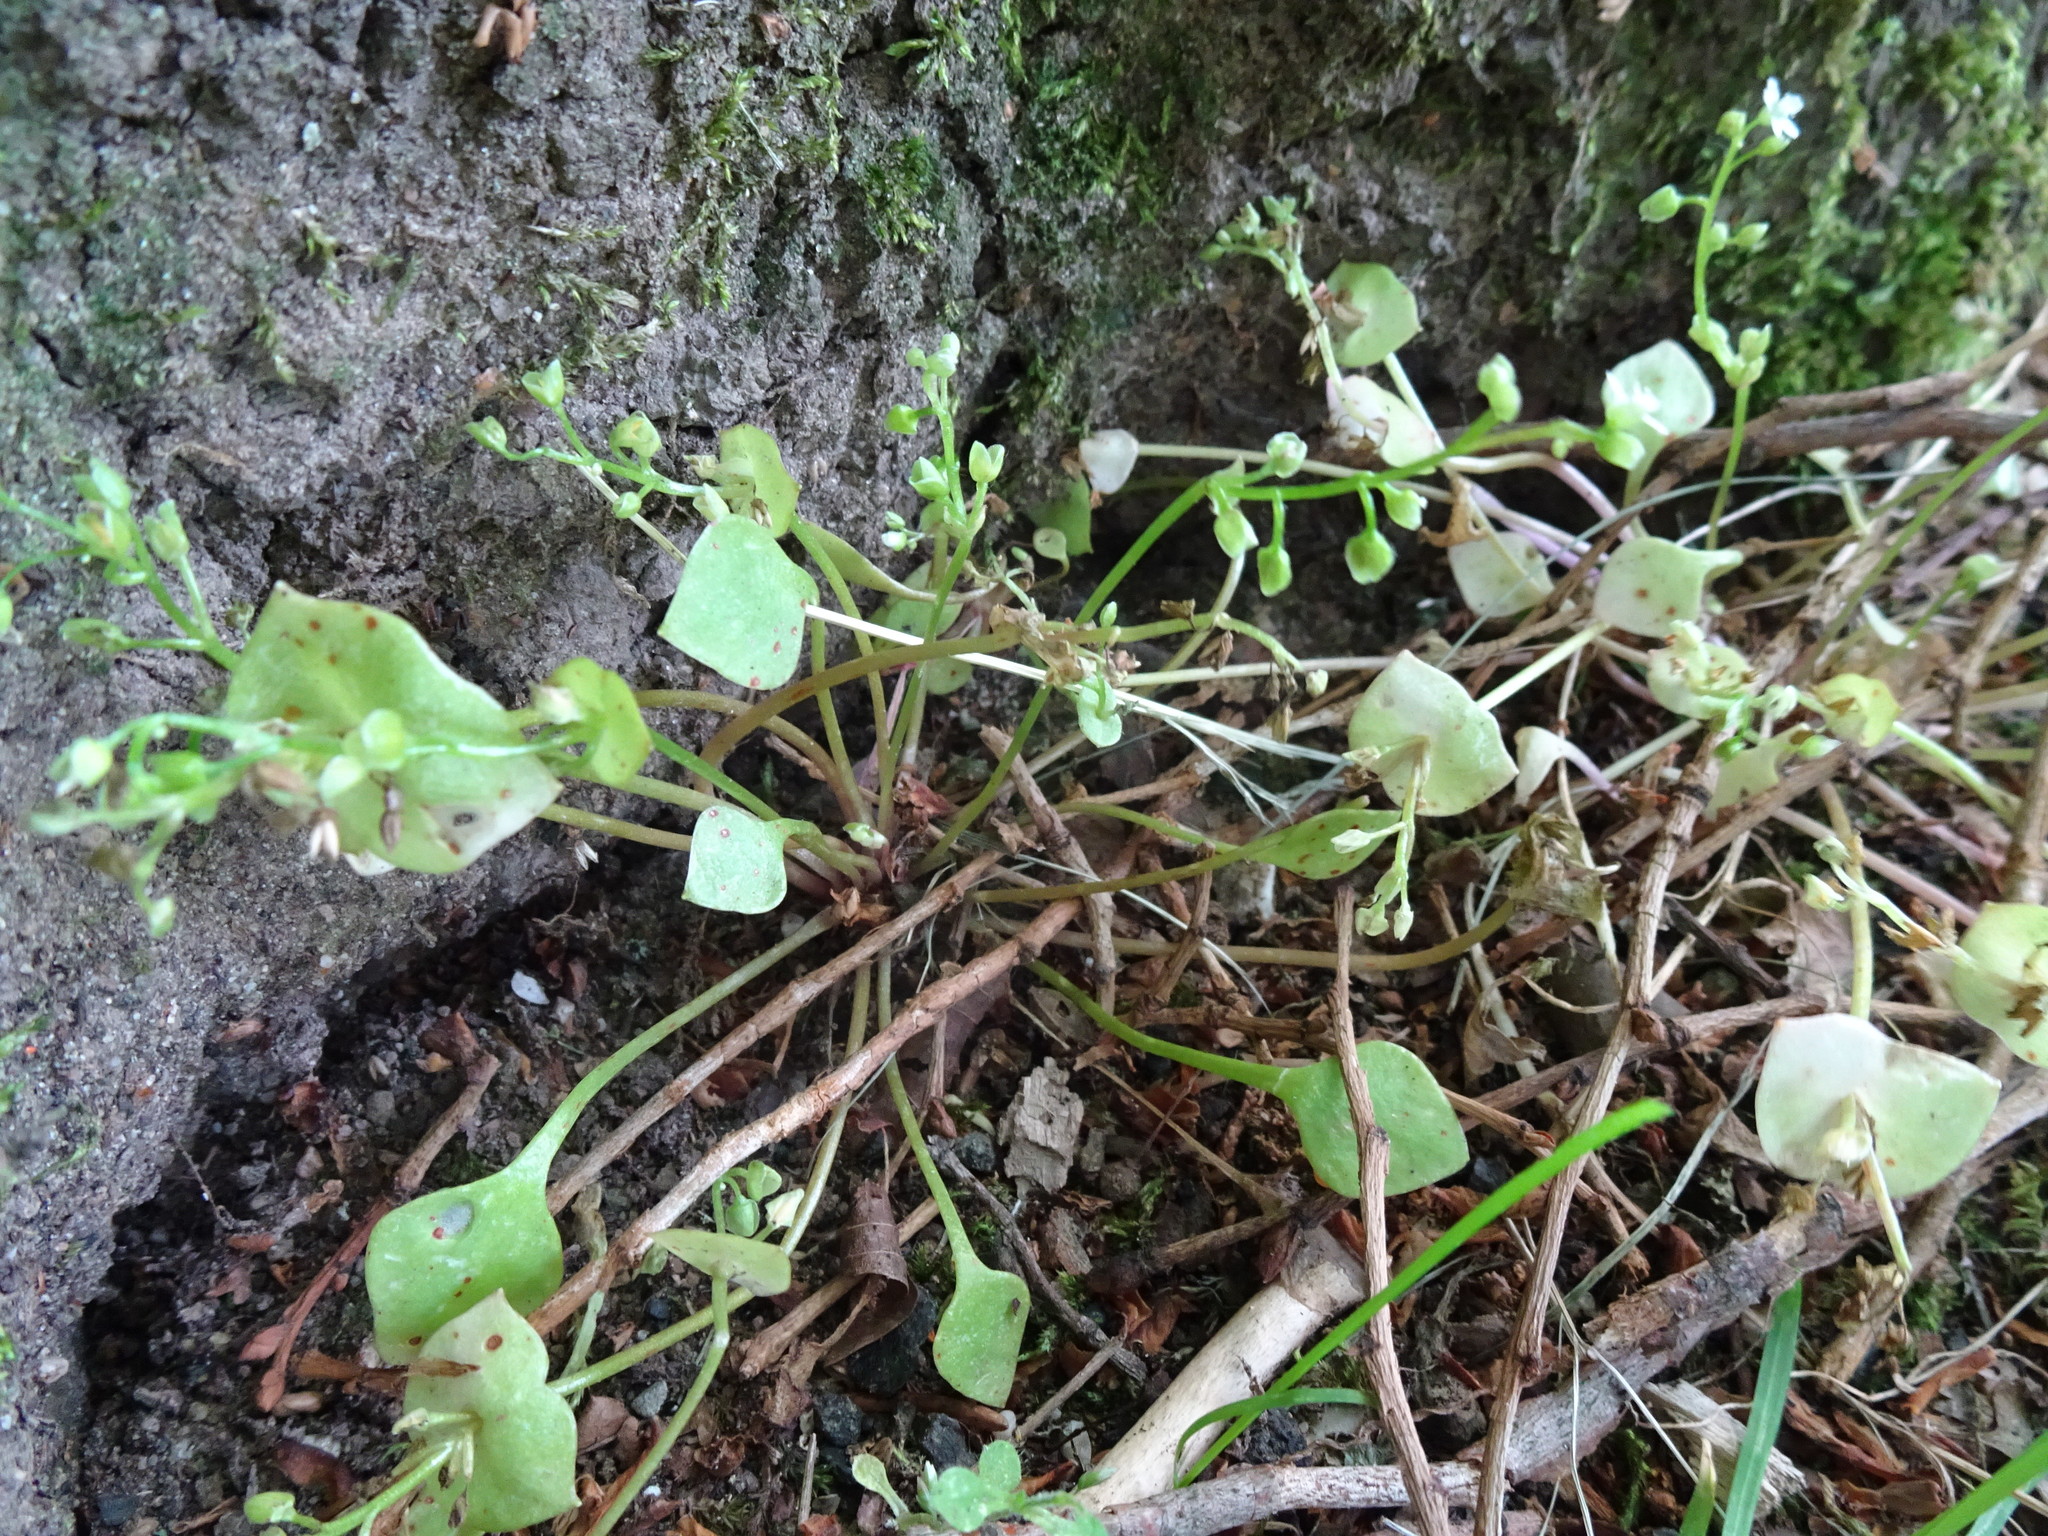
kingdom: Plantae
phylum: Tracheophyta
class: Magnoliopsida
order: Caryophyllales
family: Montiaceae
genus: Claytonia
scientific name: Claytonia perfoliata
